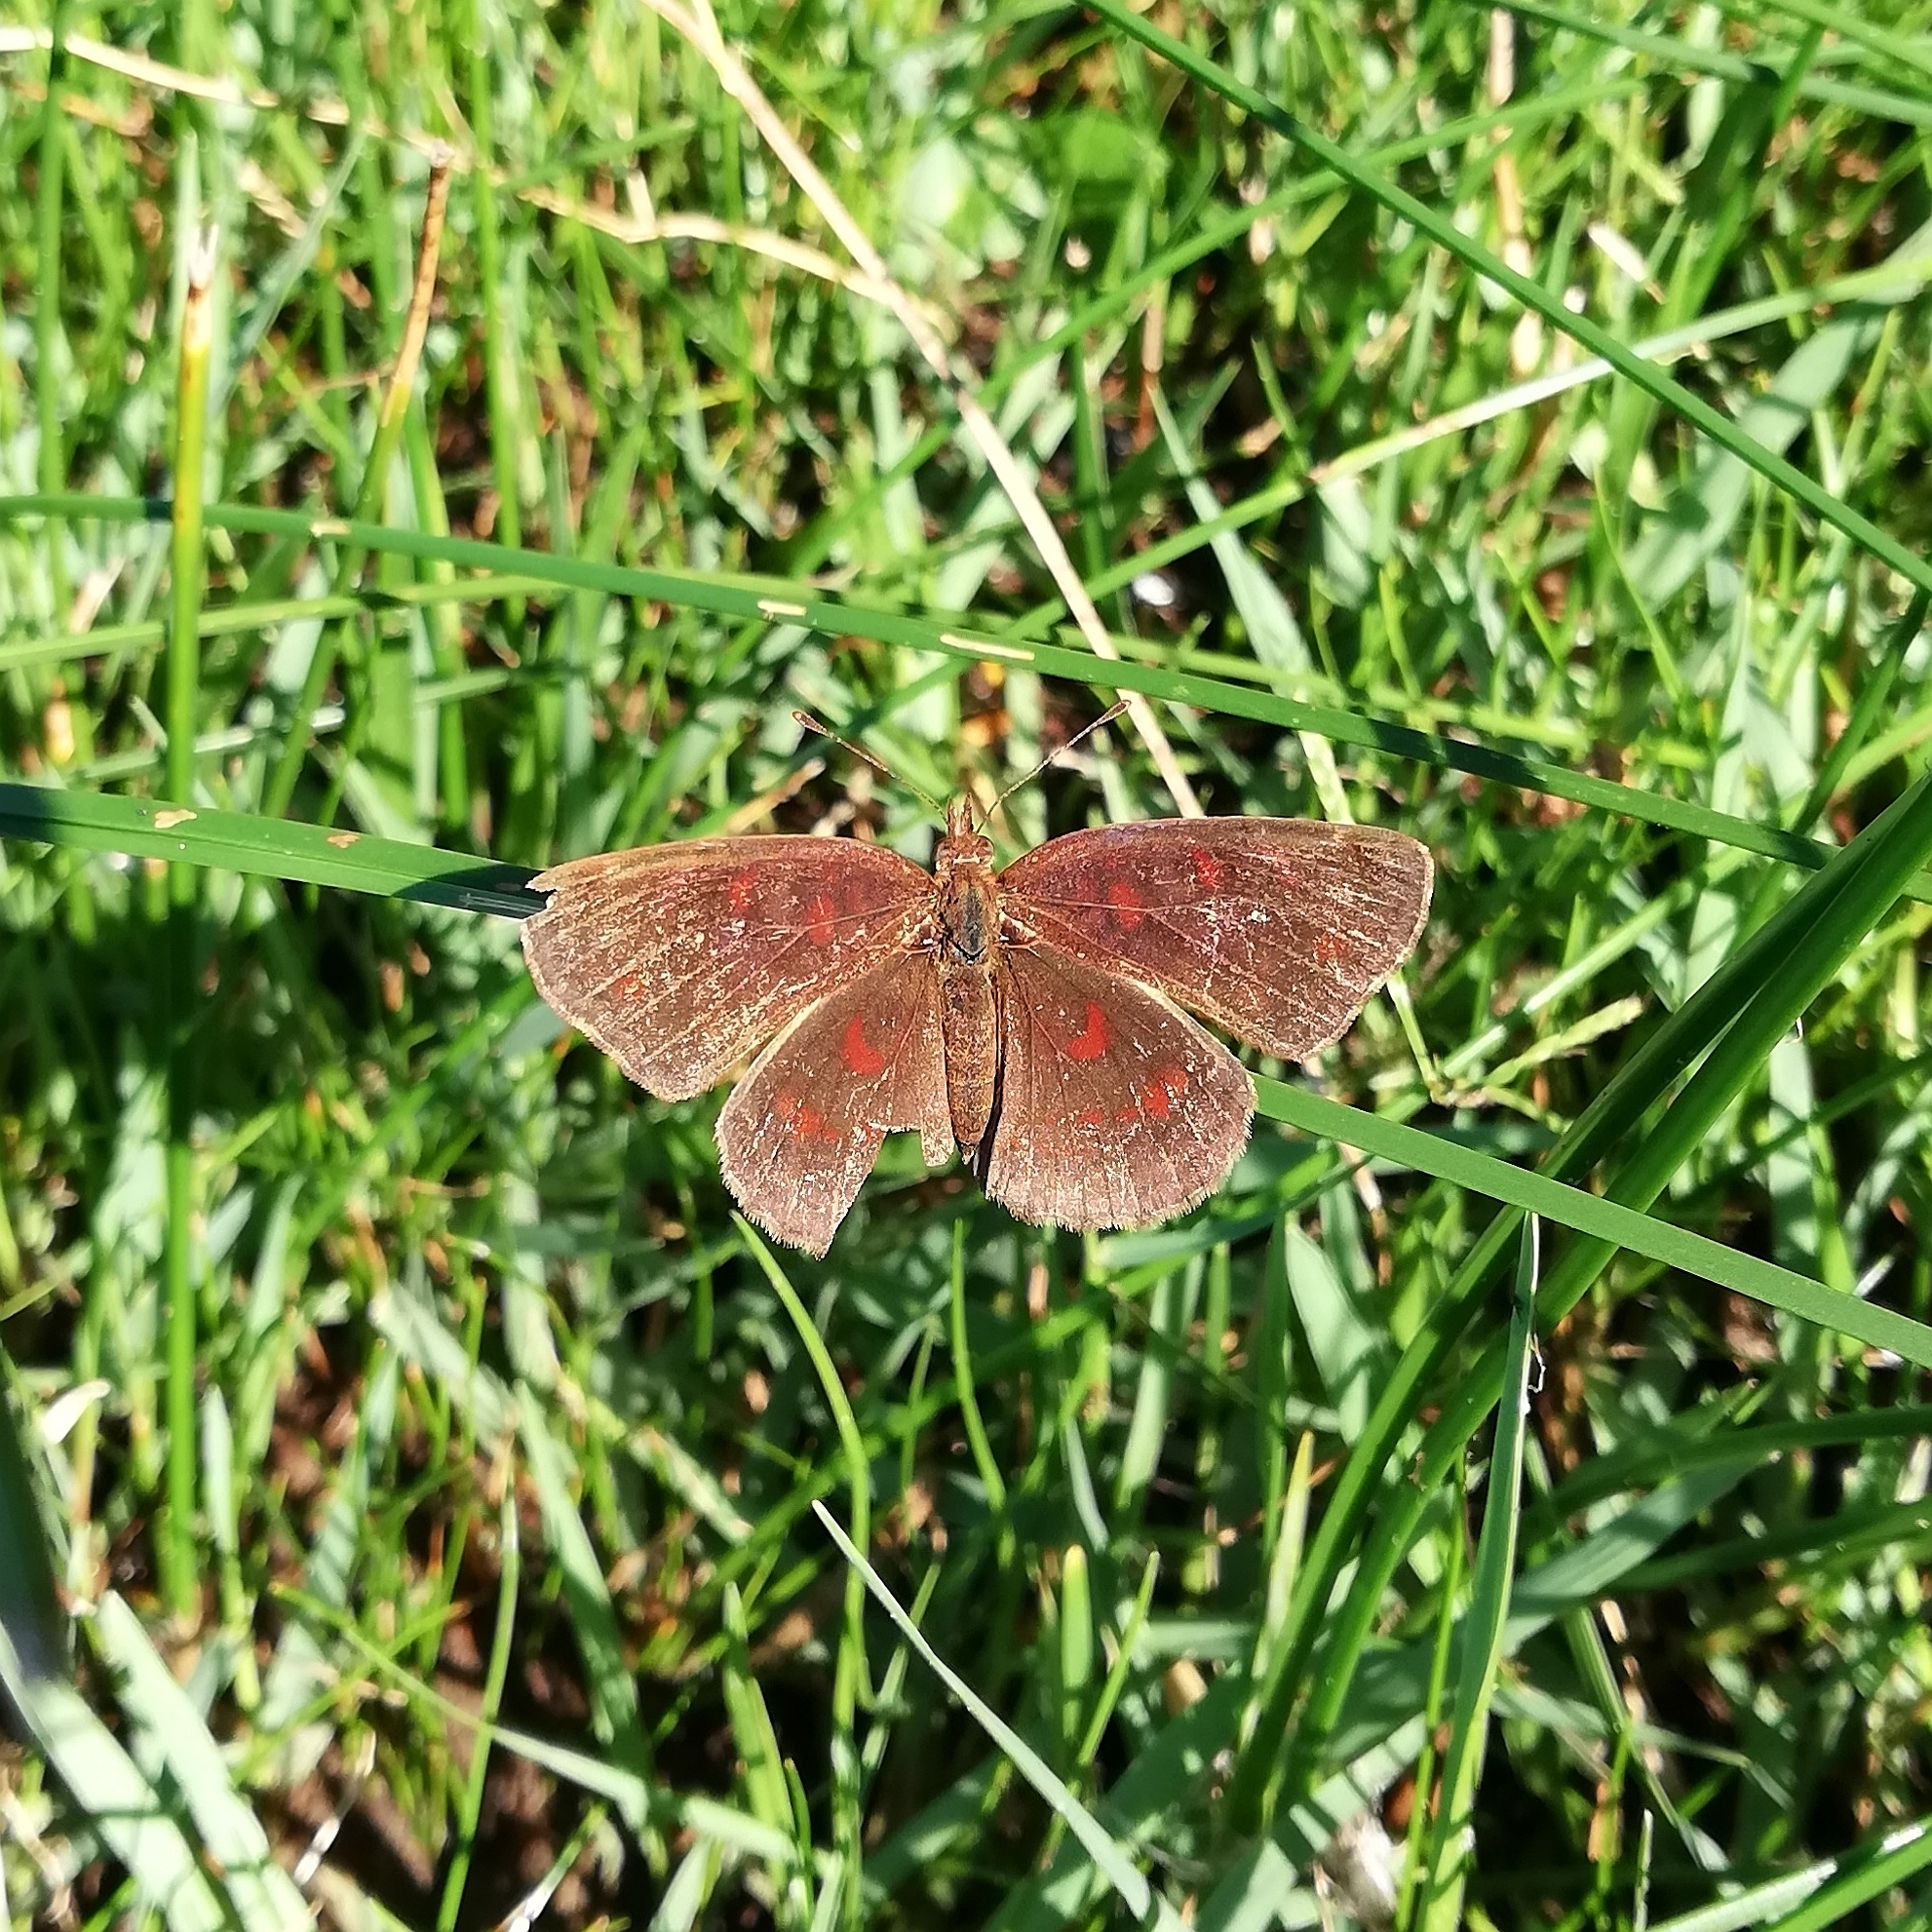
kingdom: Animalia
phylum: Arthropoda
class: Insecta
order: Lepidoptera
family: Nymphalidae
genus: Ortilia
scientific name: Ortilia velica
